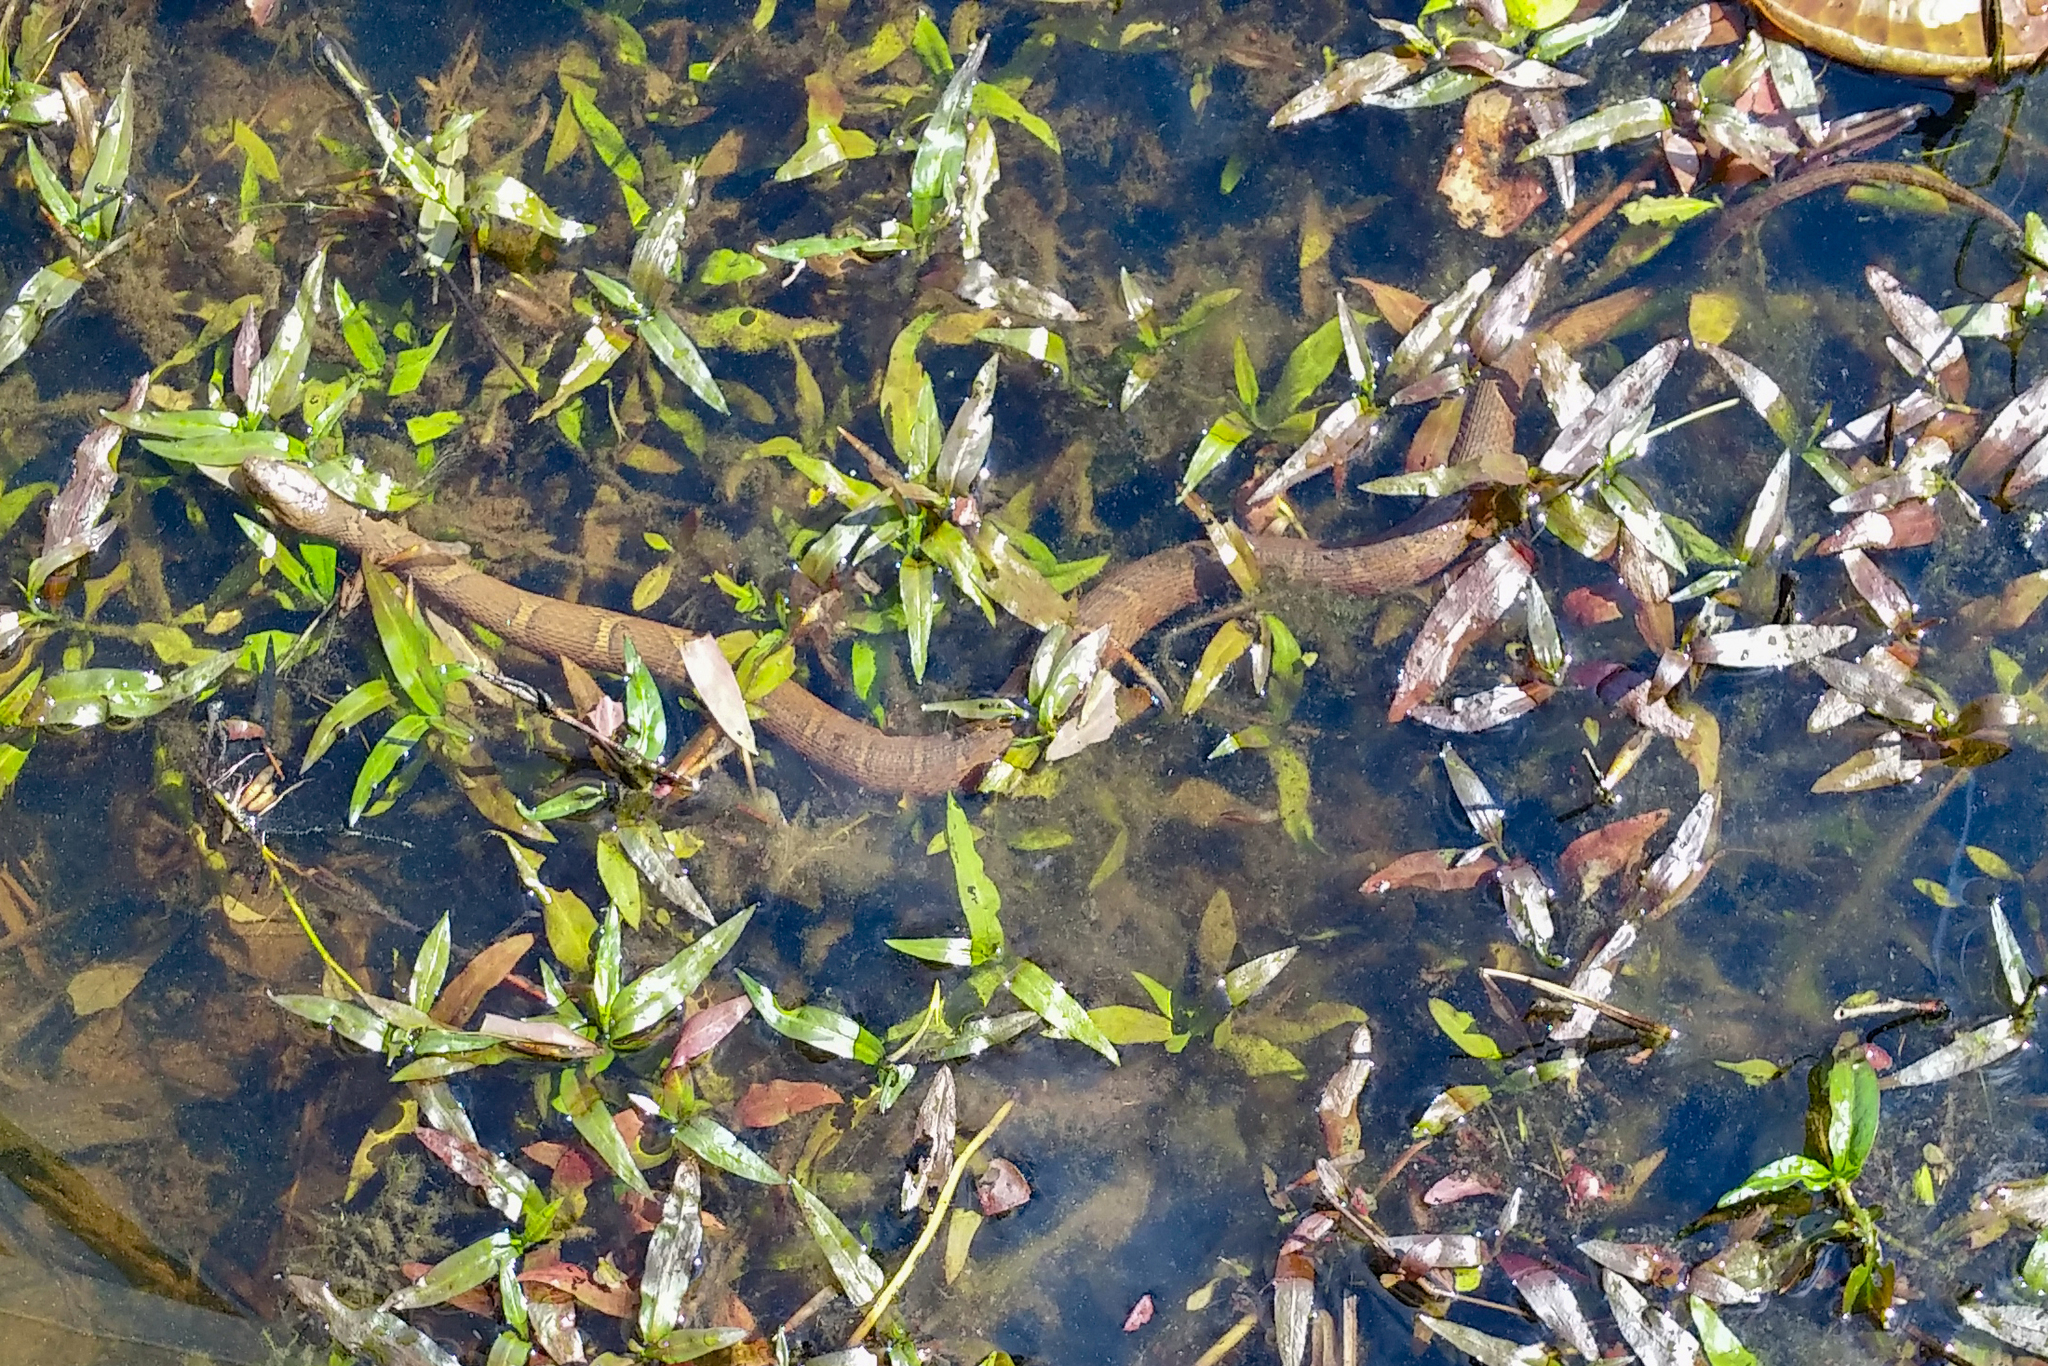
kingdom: Animalia
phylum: Chordata
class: Squamata
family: Colubridae
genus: Nerodia
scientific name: Nerodia sipedon
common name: Northern water snake
